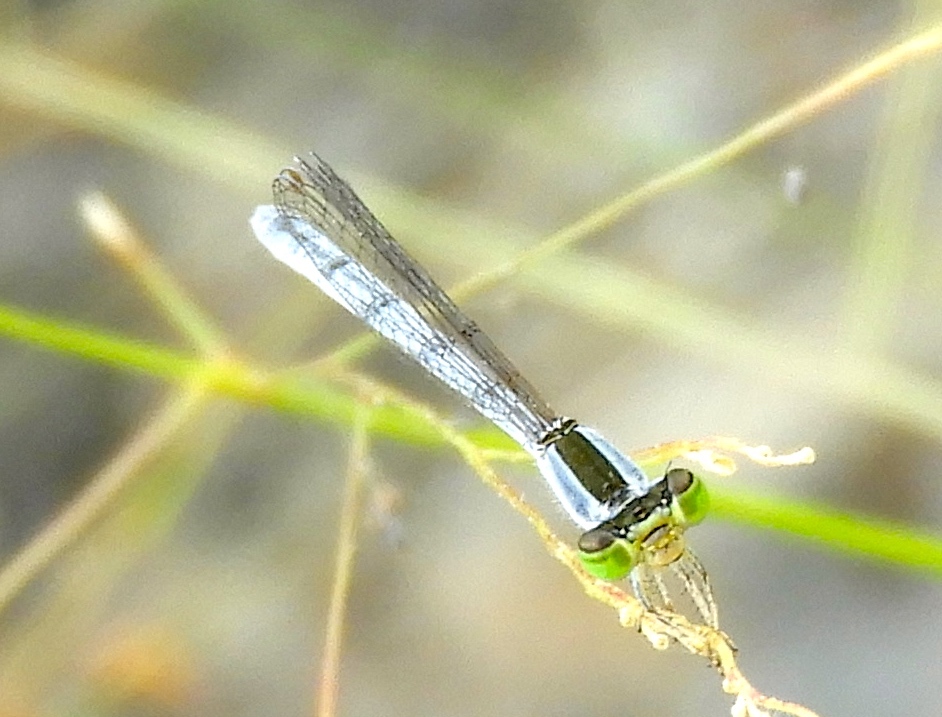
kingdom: Animalia
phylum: Arthropoda
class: Insecta
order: Odonata
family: Coenagrionidae
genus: Ischnura
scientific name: Ischnura hastata
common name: Citrine forktail
